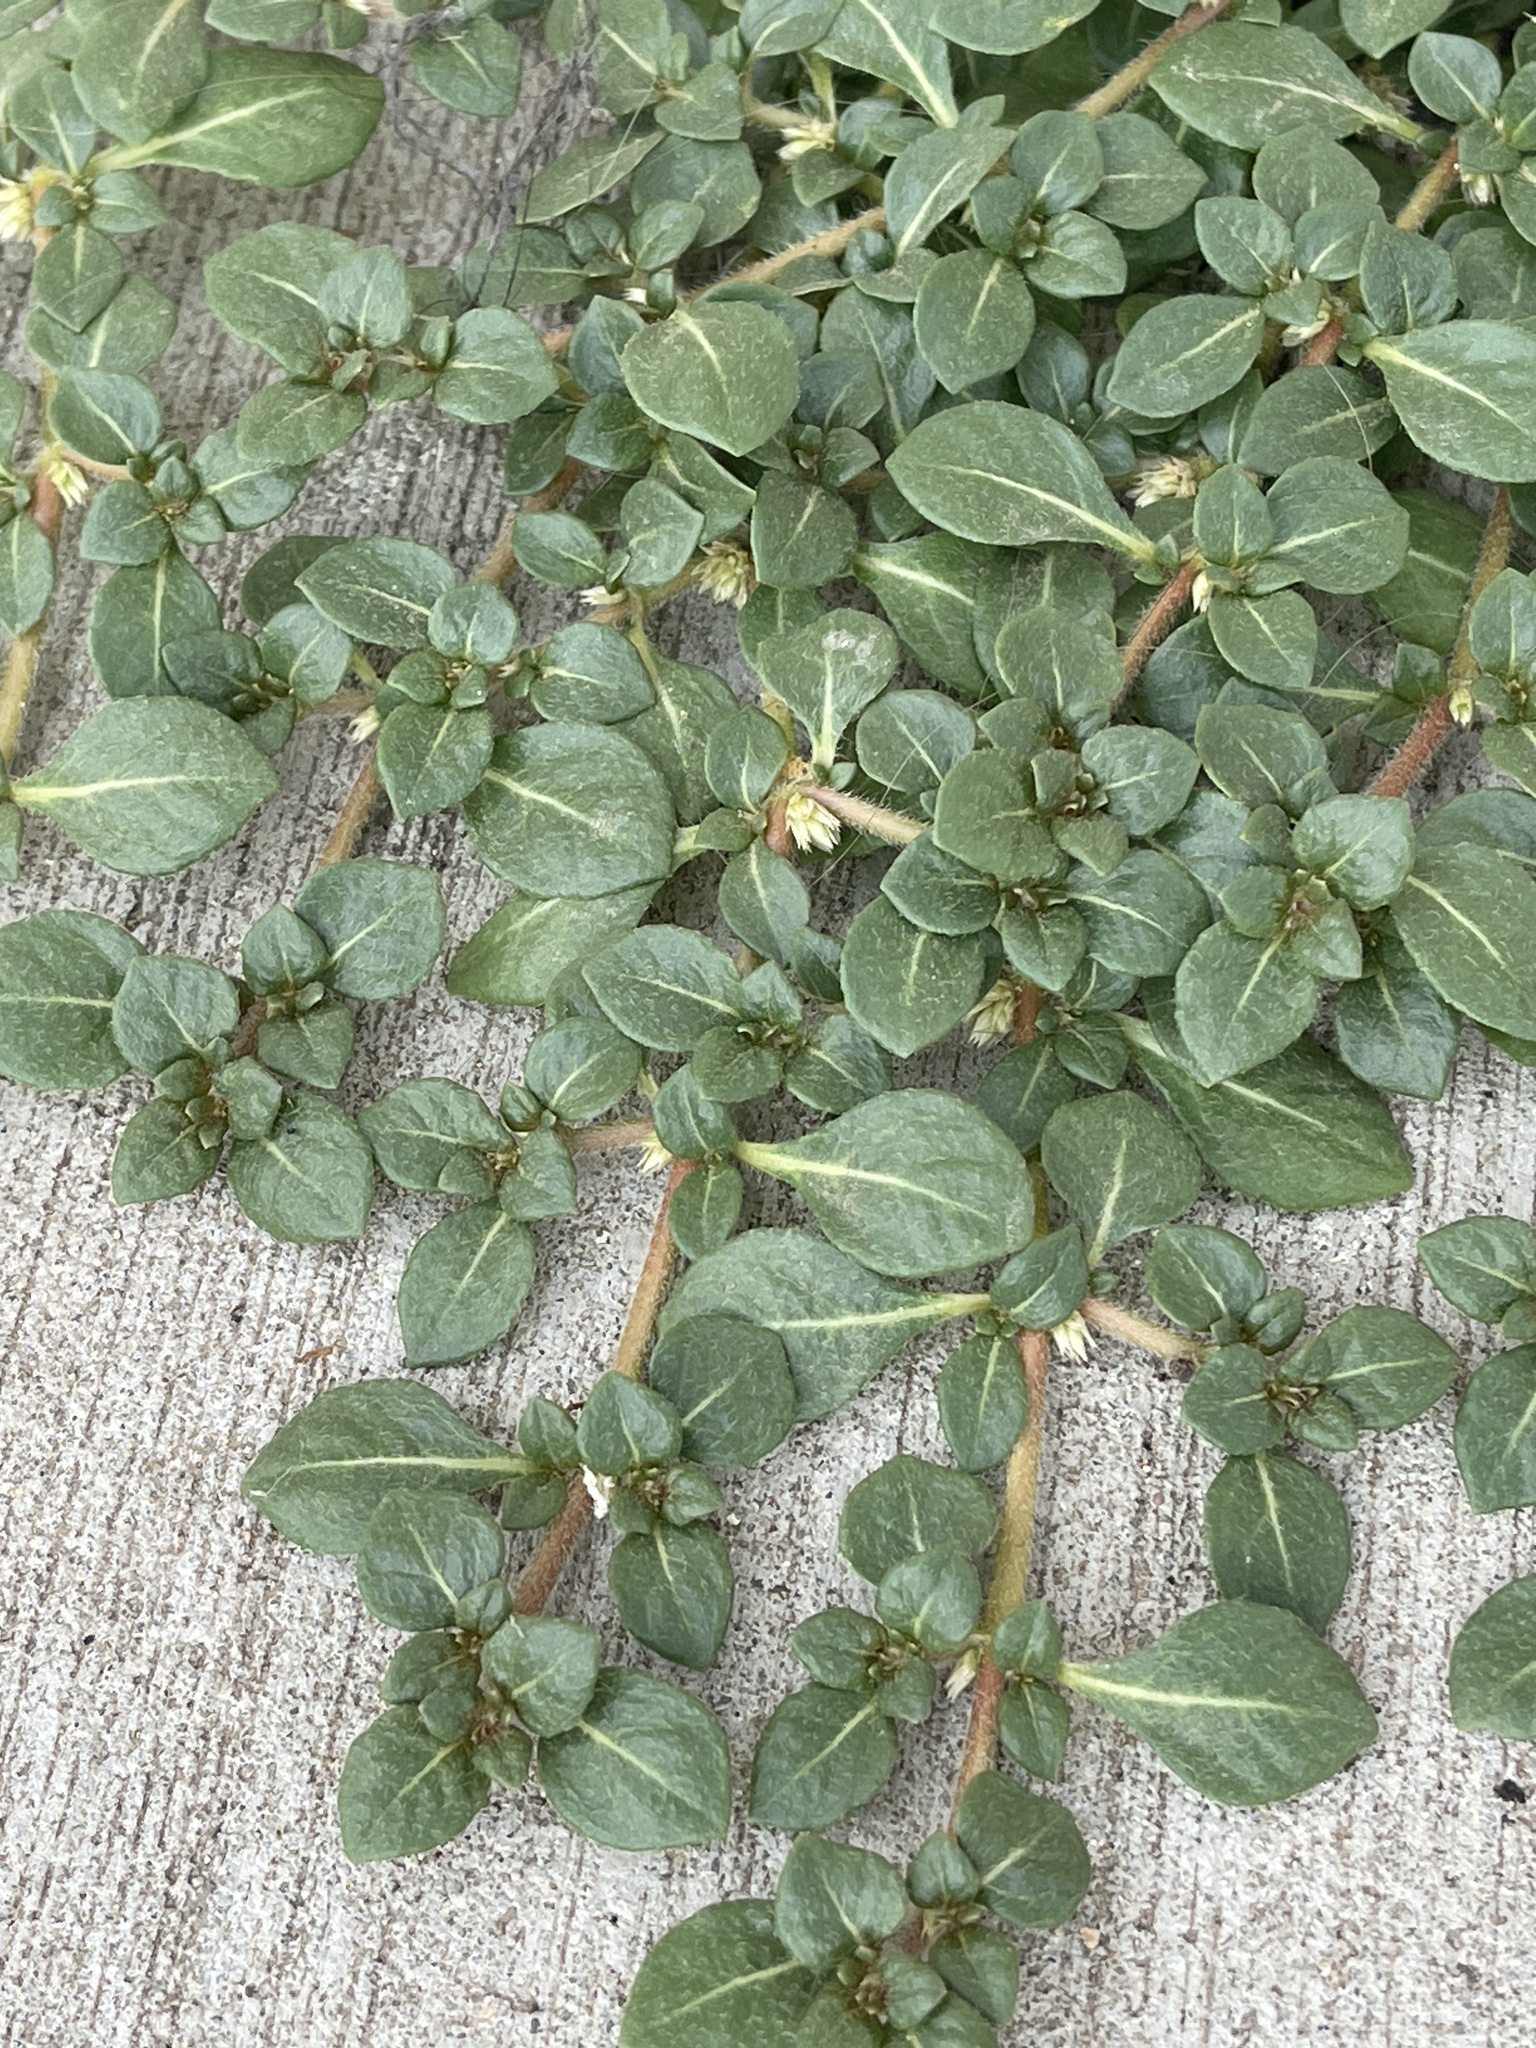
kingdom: Plantae
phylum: Tracheophyta
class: Magnoliopsida
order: Caryophyllales
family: Amaranthaceae
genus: Alternanthera
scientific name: Alternanthera caracasana
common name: Washerwoman
